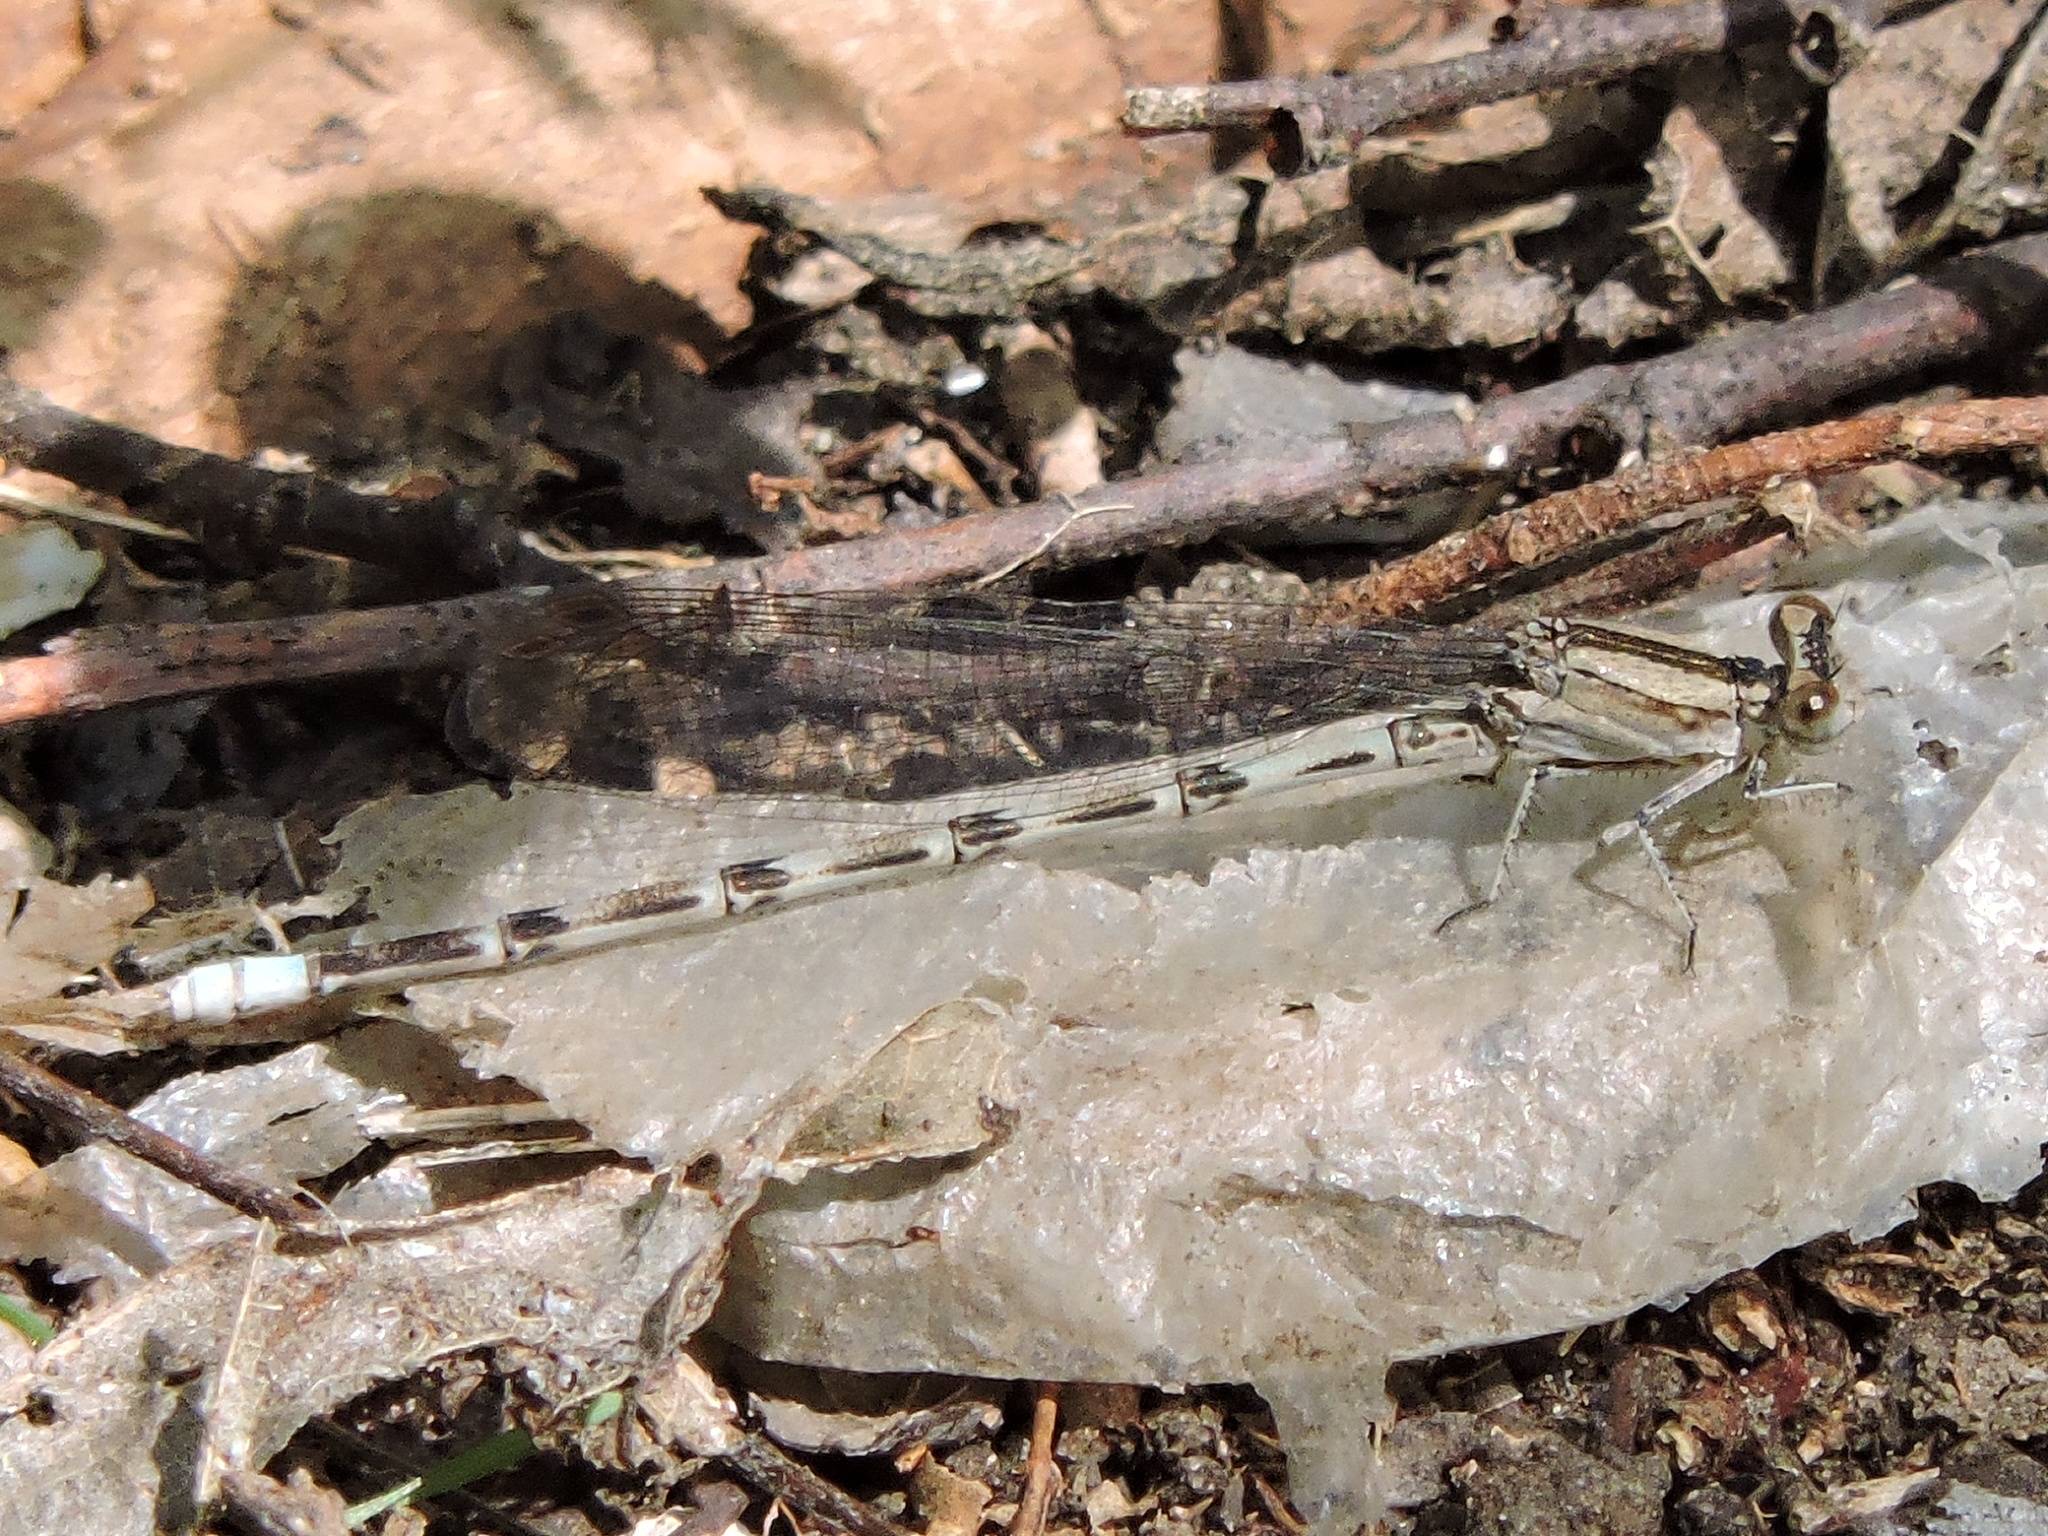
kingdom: Animalia
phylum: Arthropoda
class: Insecta
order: Odonata
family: Coenagrionidae
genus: Argia
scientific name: Argia immunda
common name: Kiowa dancer
